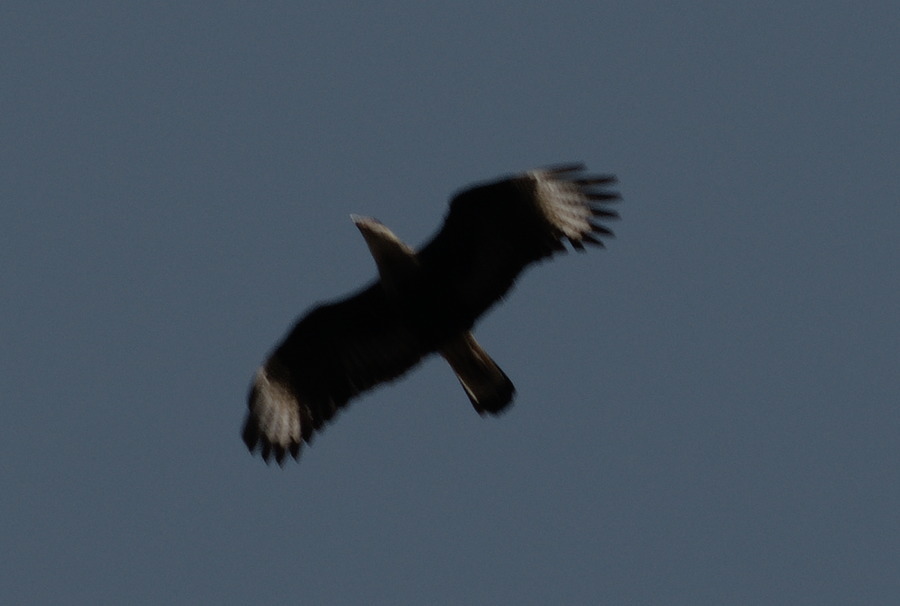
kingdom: Animalia
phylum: Chordata
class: Aves
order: Falconiformes
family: Falconidae
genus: Caracara
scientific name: Caracara plancus
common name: Southern caracara
